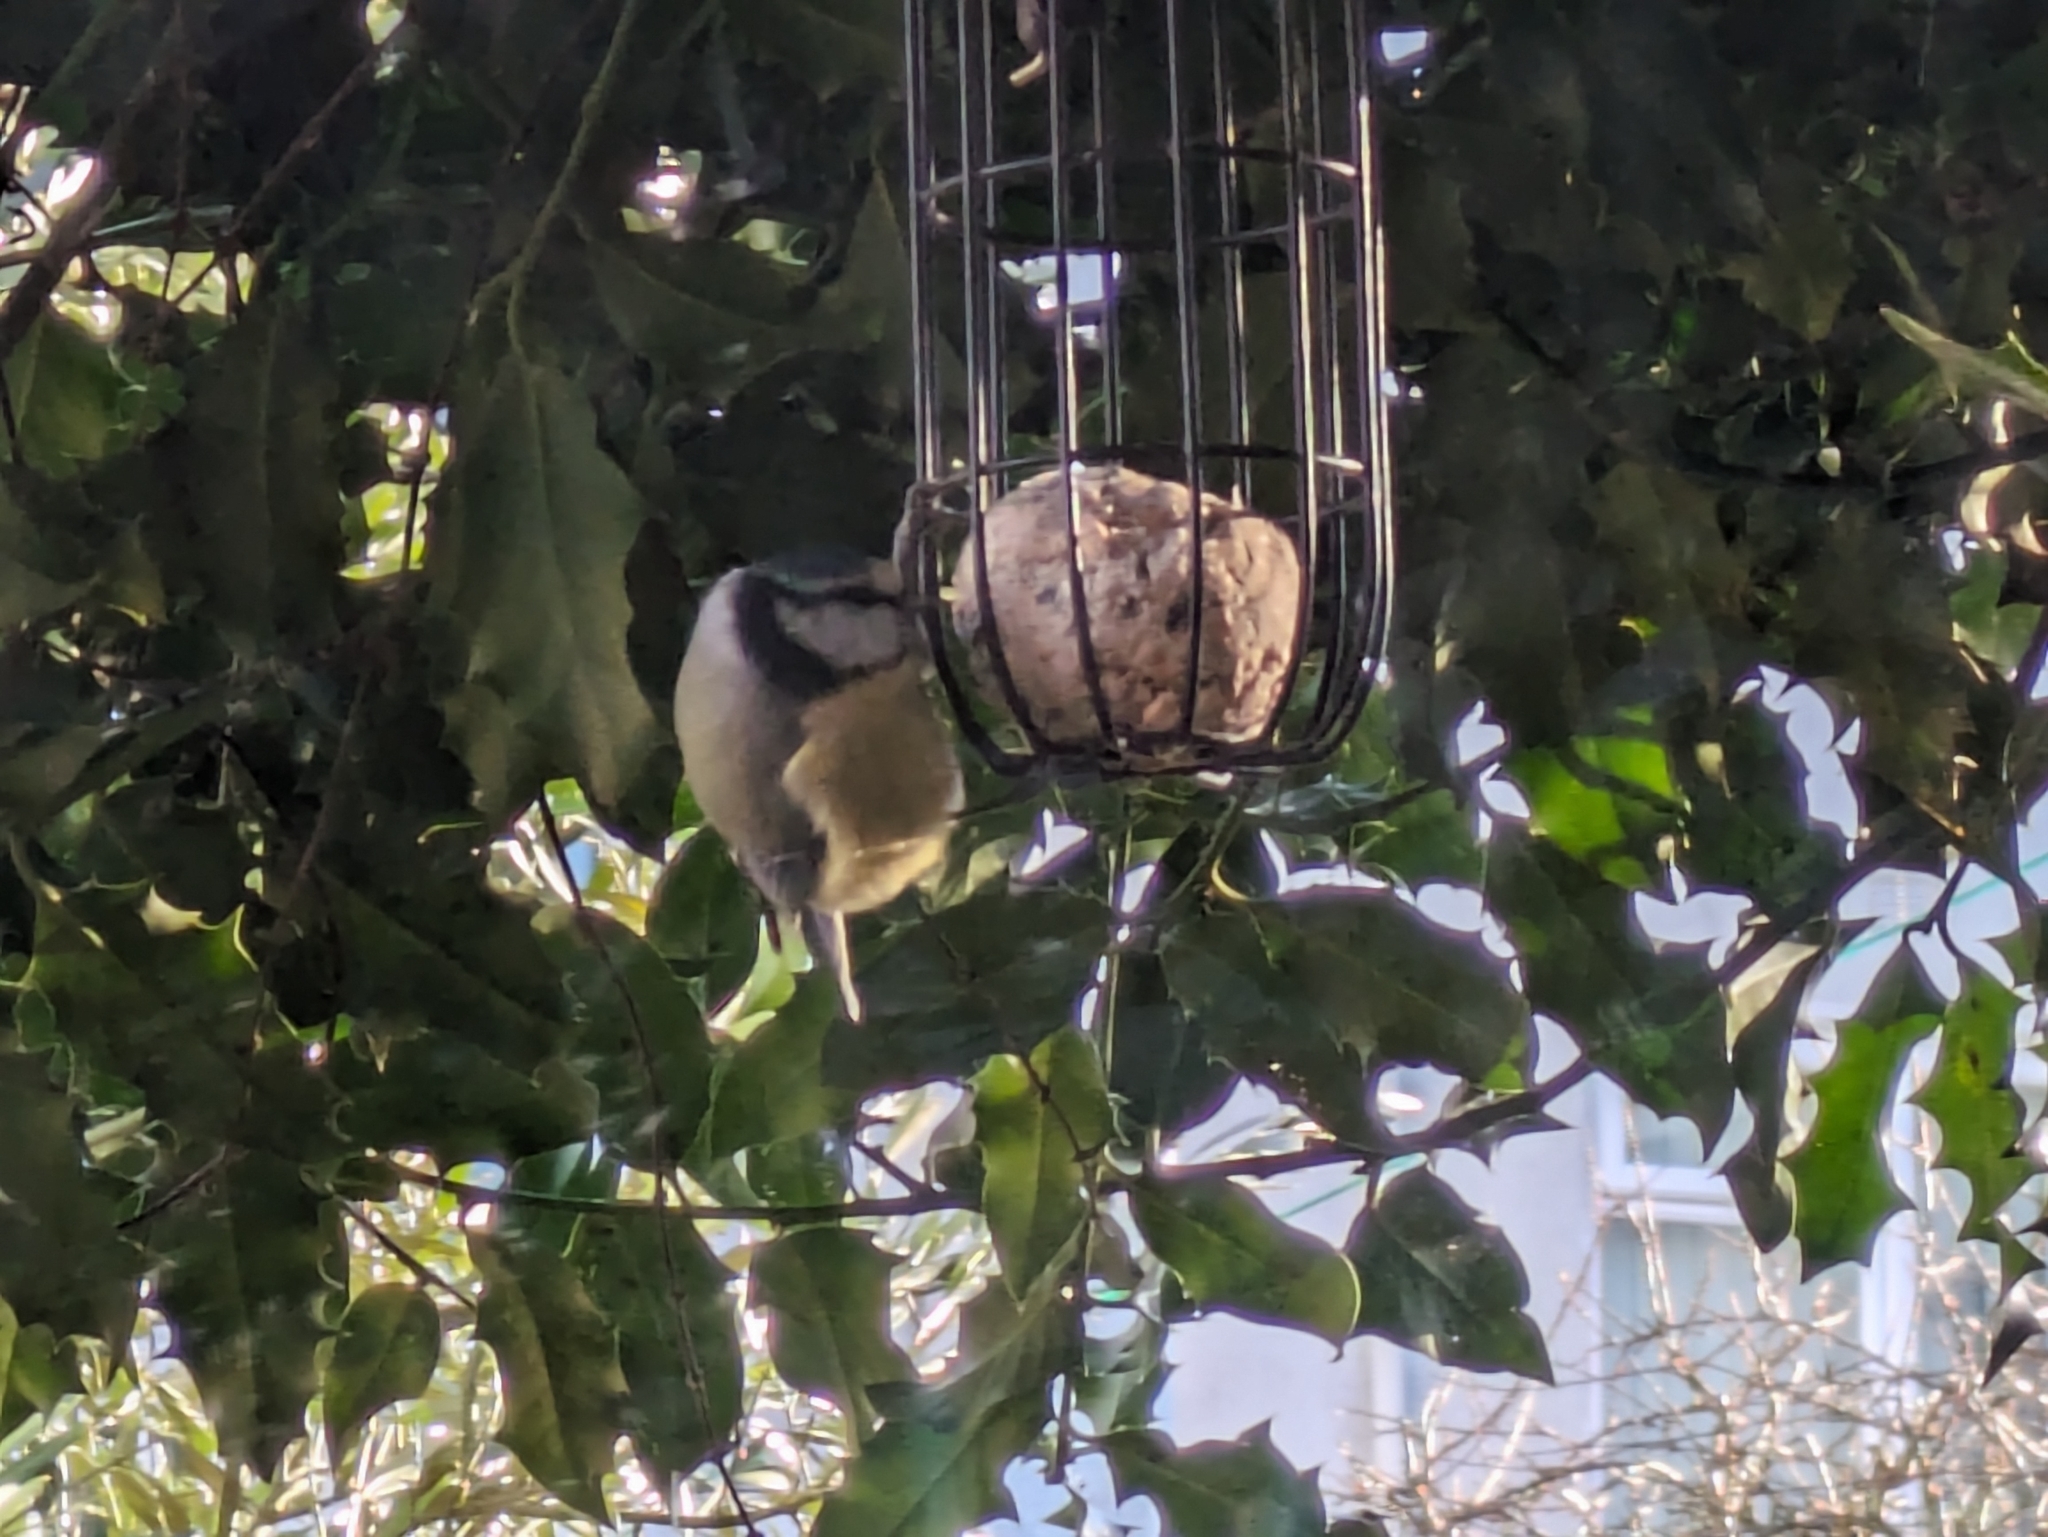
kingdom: Animalia
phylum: Chordata
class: Aves
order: Passeriformes
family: Paridae
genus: Cyanistes
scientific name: Cyanistes caeruleus
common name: Eurasian blue tit
